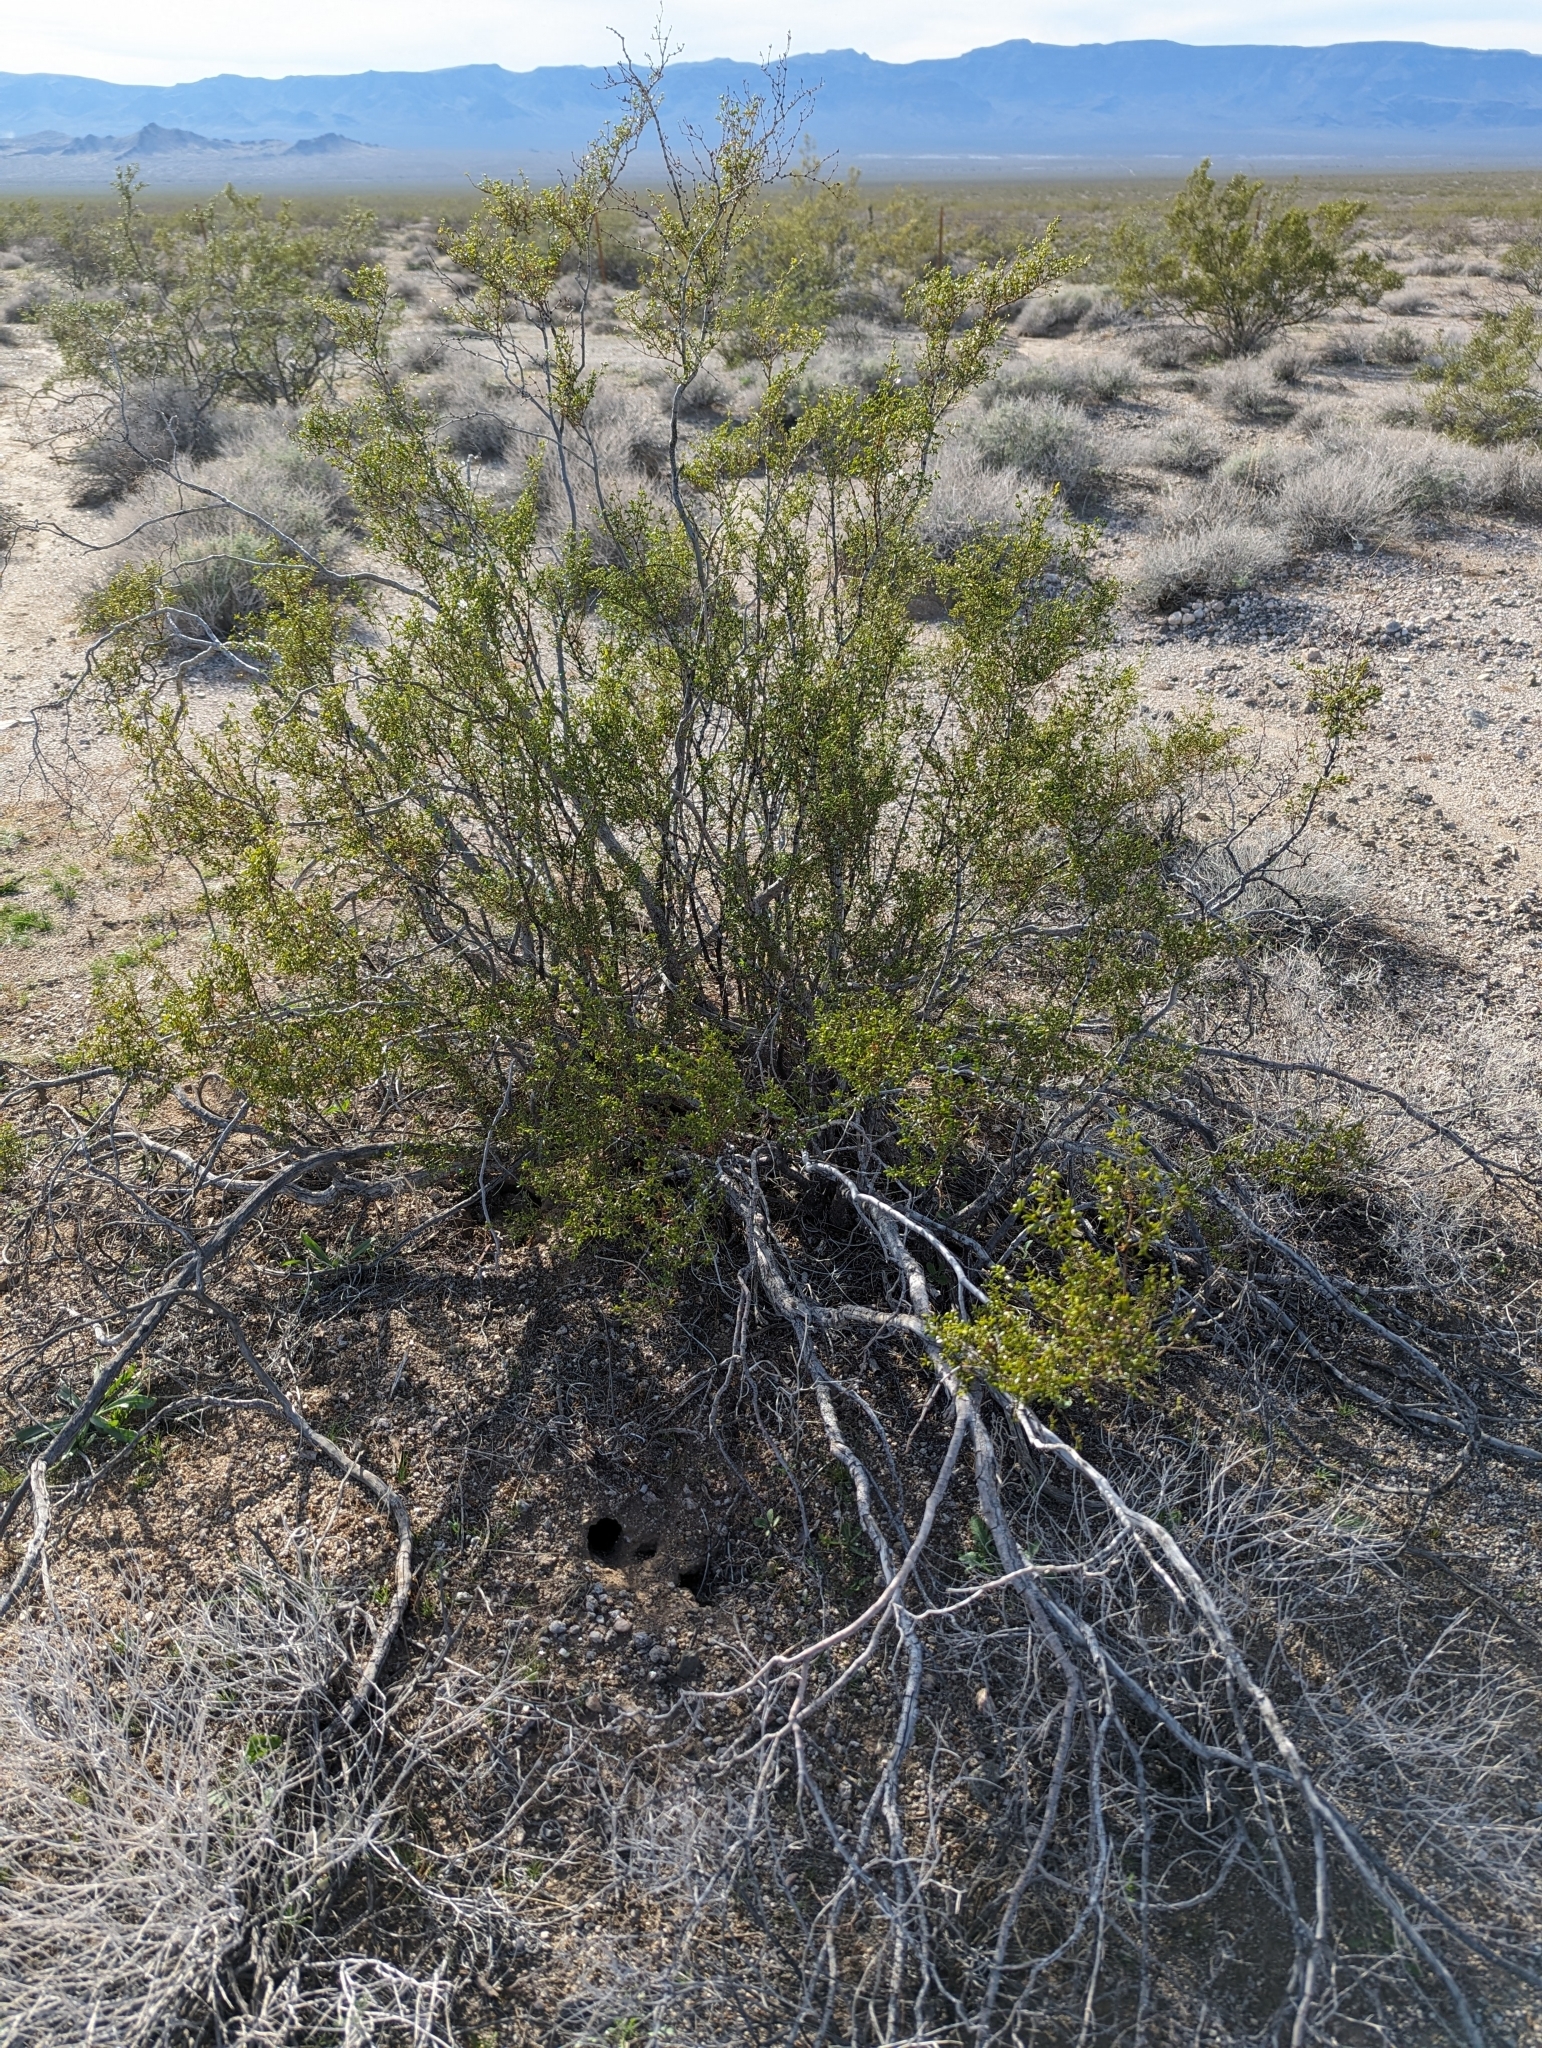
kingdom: Plantae
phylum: Tracheophyta
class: Magnoliopsida
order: Zygophyllales
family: Zygophyllaceae
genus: Larrea
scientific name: Larrea tridentata
